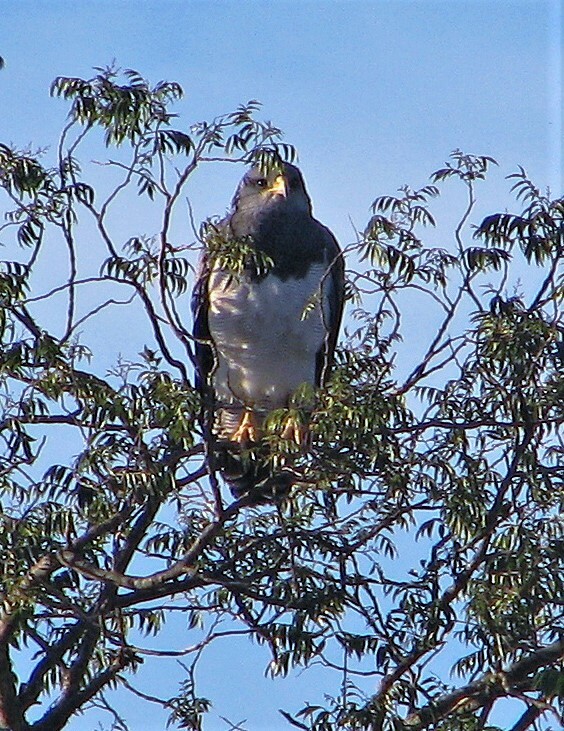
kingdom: Animalia
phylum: Chordata
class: Aves
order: Accipitriformes
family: Accipitridae
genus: Geranoaetus
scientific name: Geranoaetus melanoleucus
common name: Black-chested buzzard-eagle
